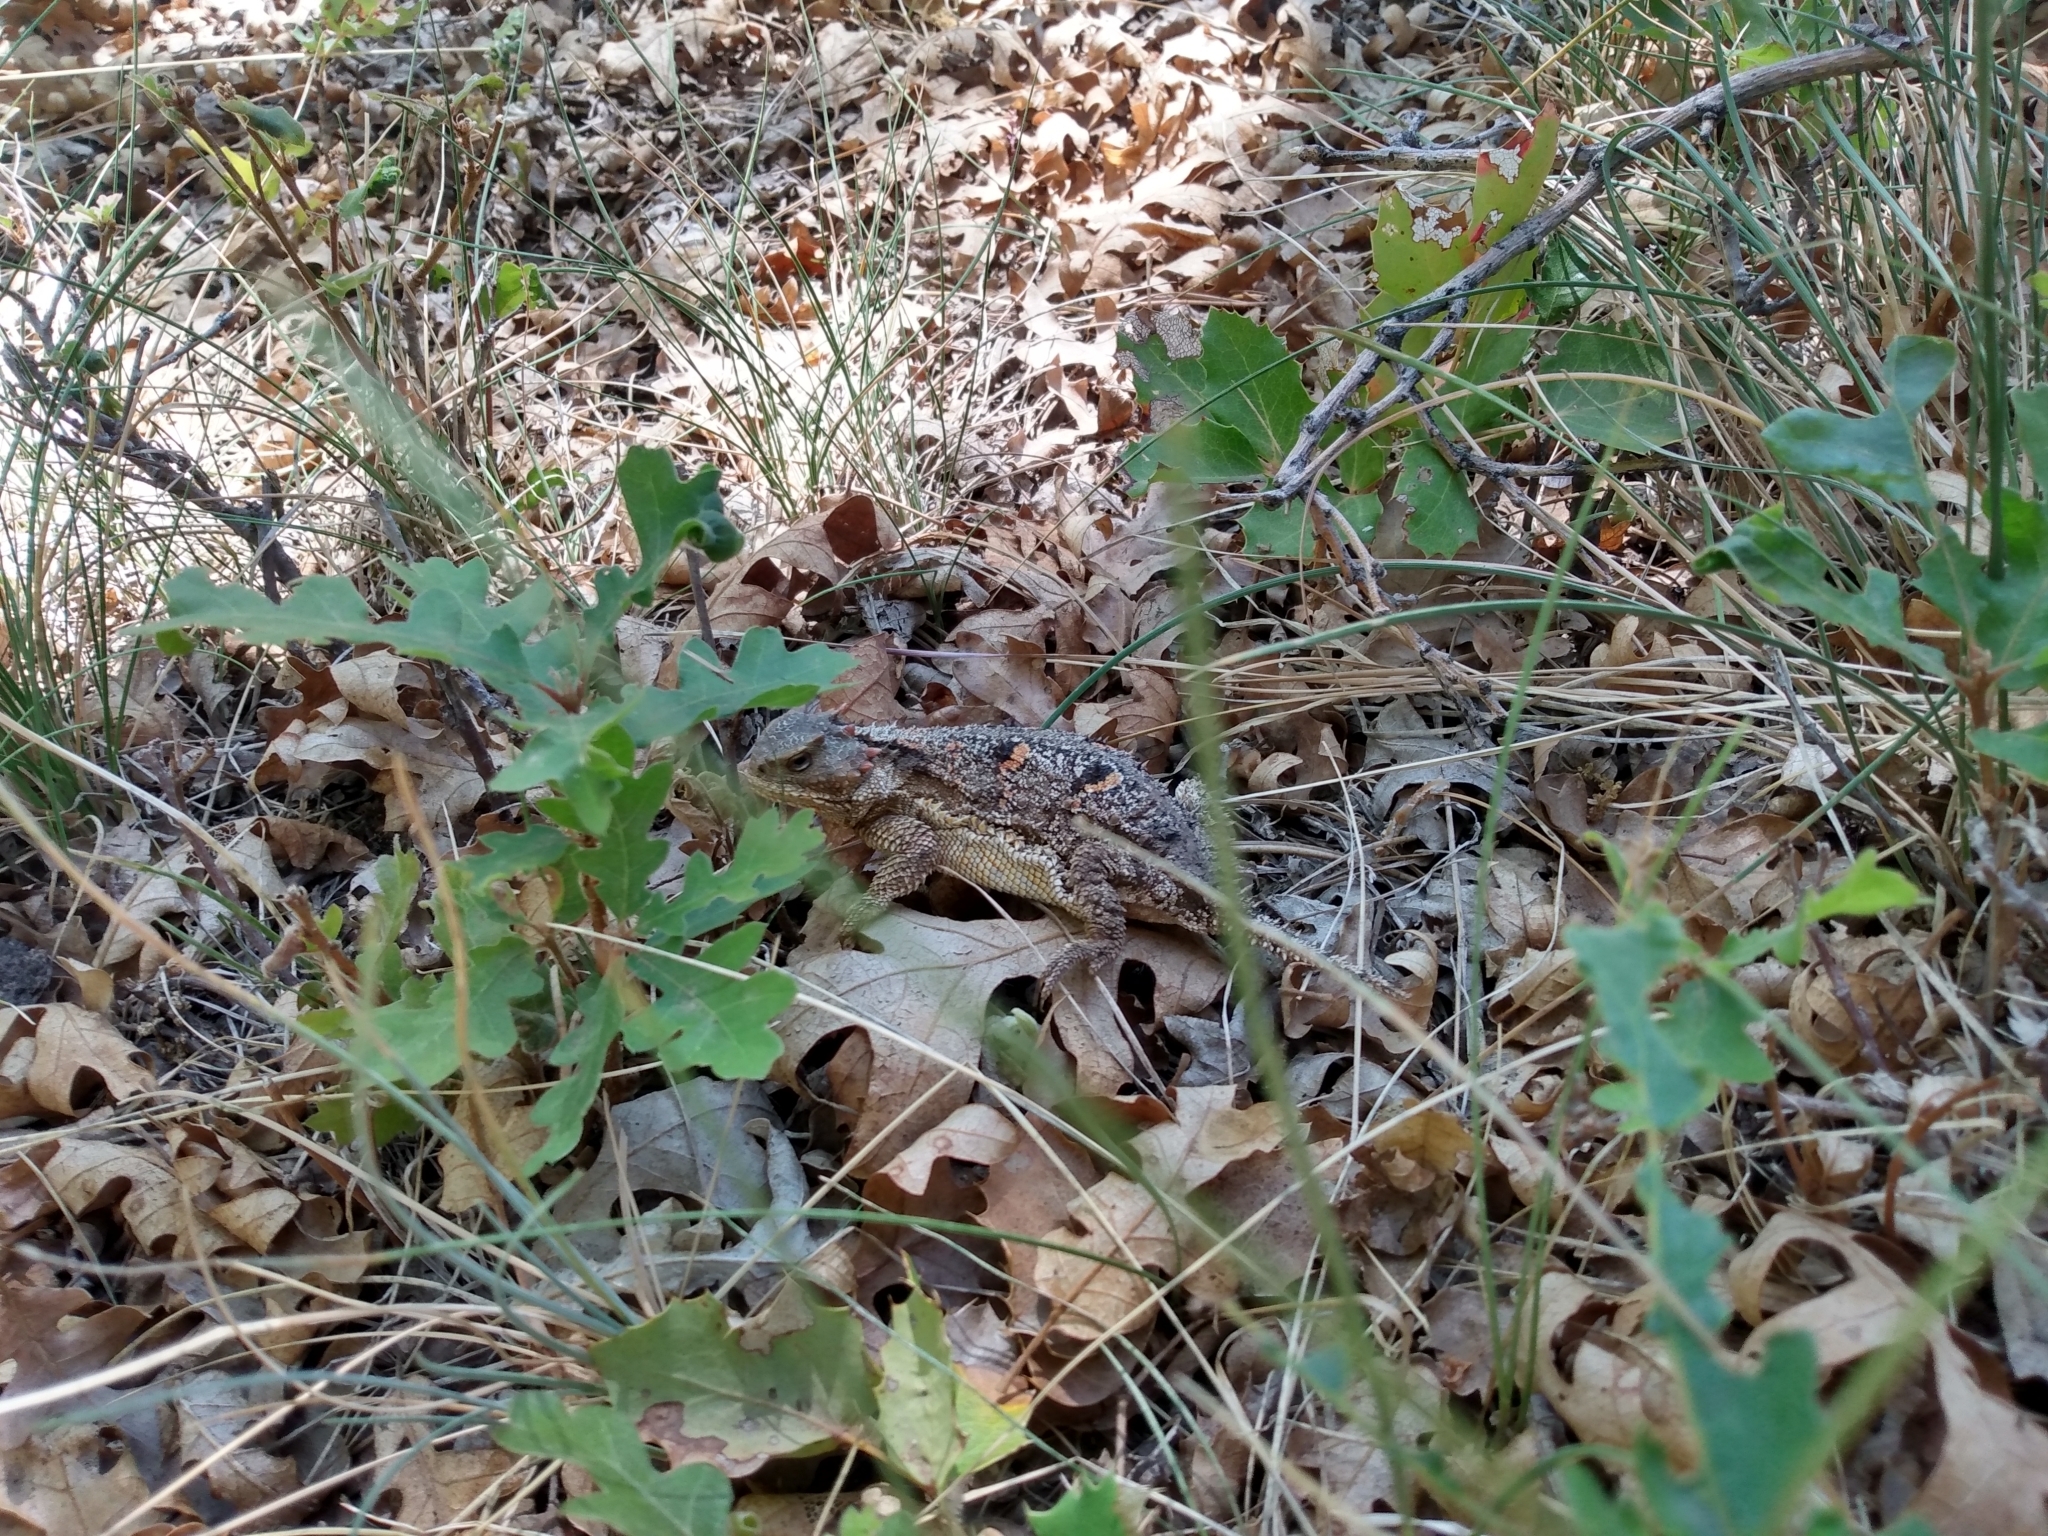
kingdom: Animalia
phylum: Chordata
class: Squamata
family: Phrynosomatidae
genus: Phrynosoma
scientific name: Phrynosoma hernandesi
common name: Greater short-horned lizard
